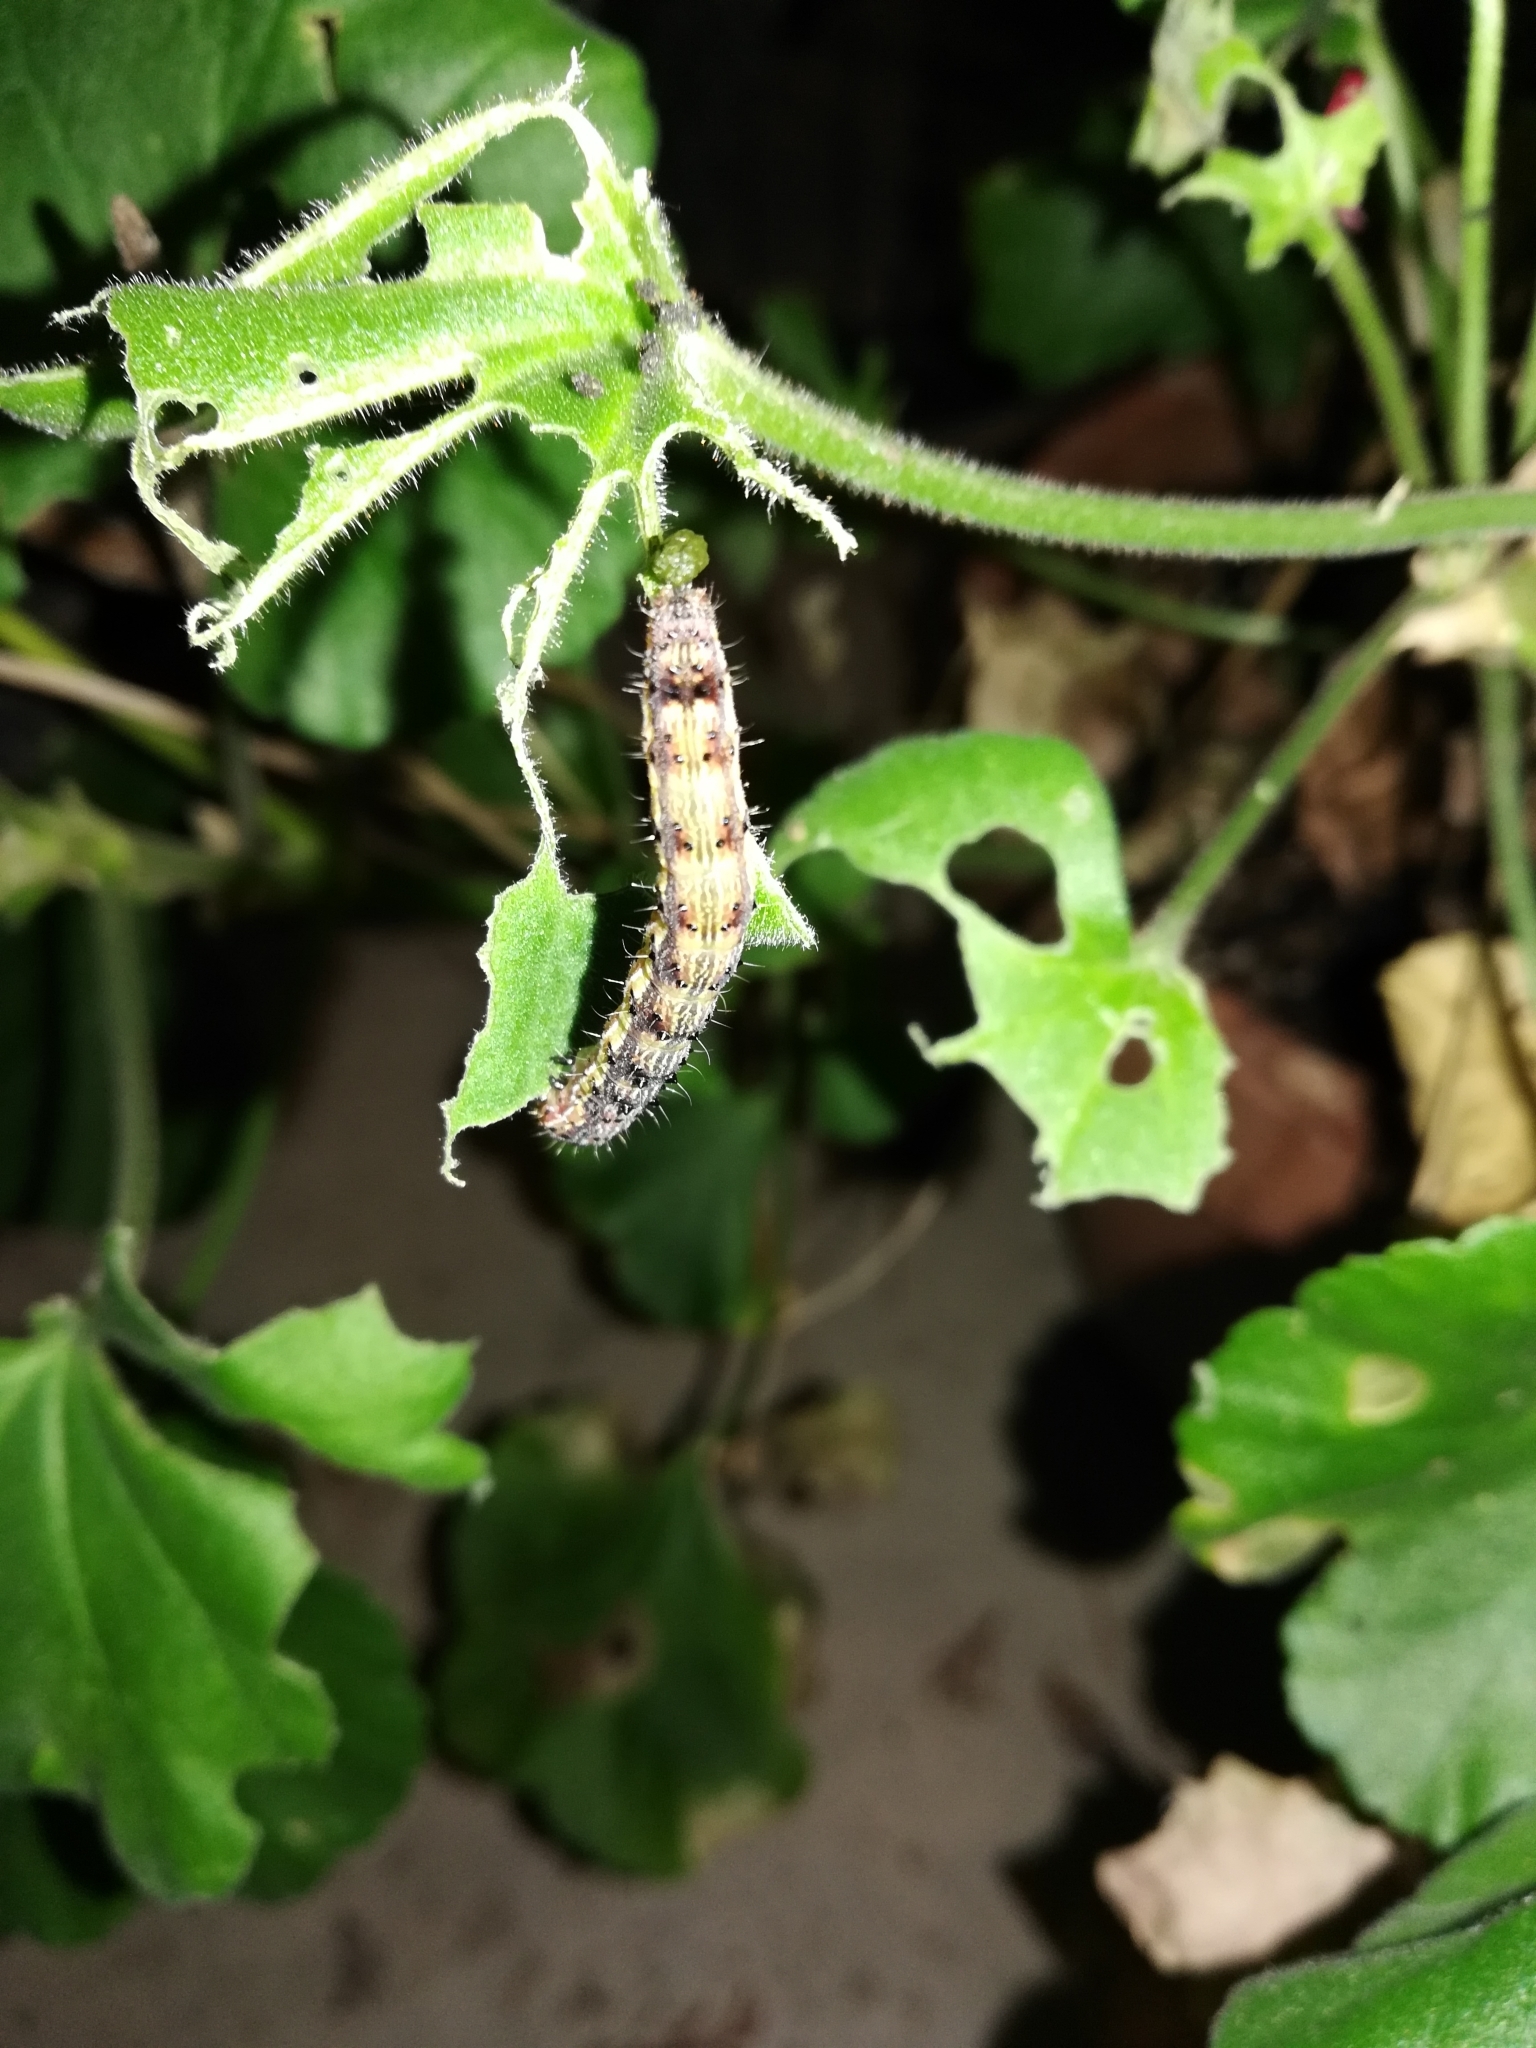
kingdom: Animalia
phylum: Arthropoda
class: Insecta
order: Lepidoptera
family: Noctuidae
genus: Chloridea
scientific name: Chloridea virescens
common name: Tobacco budworm
